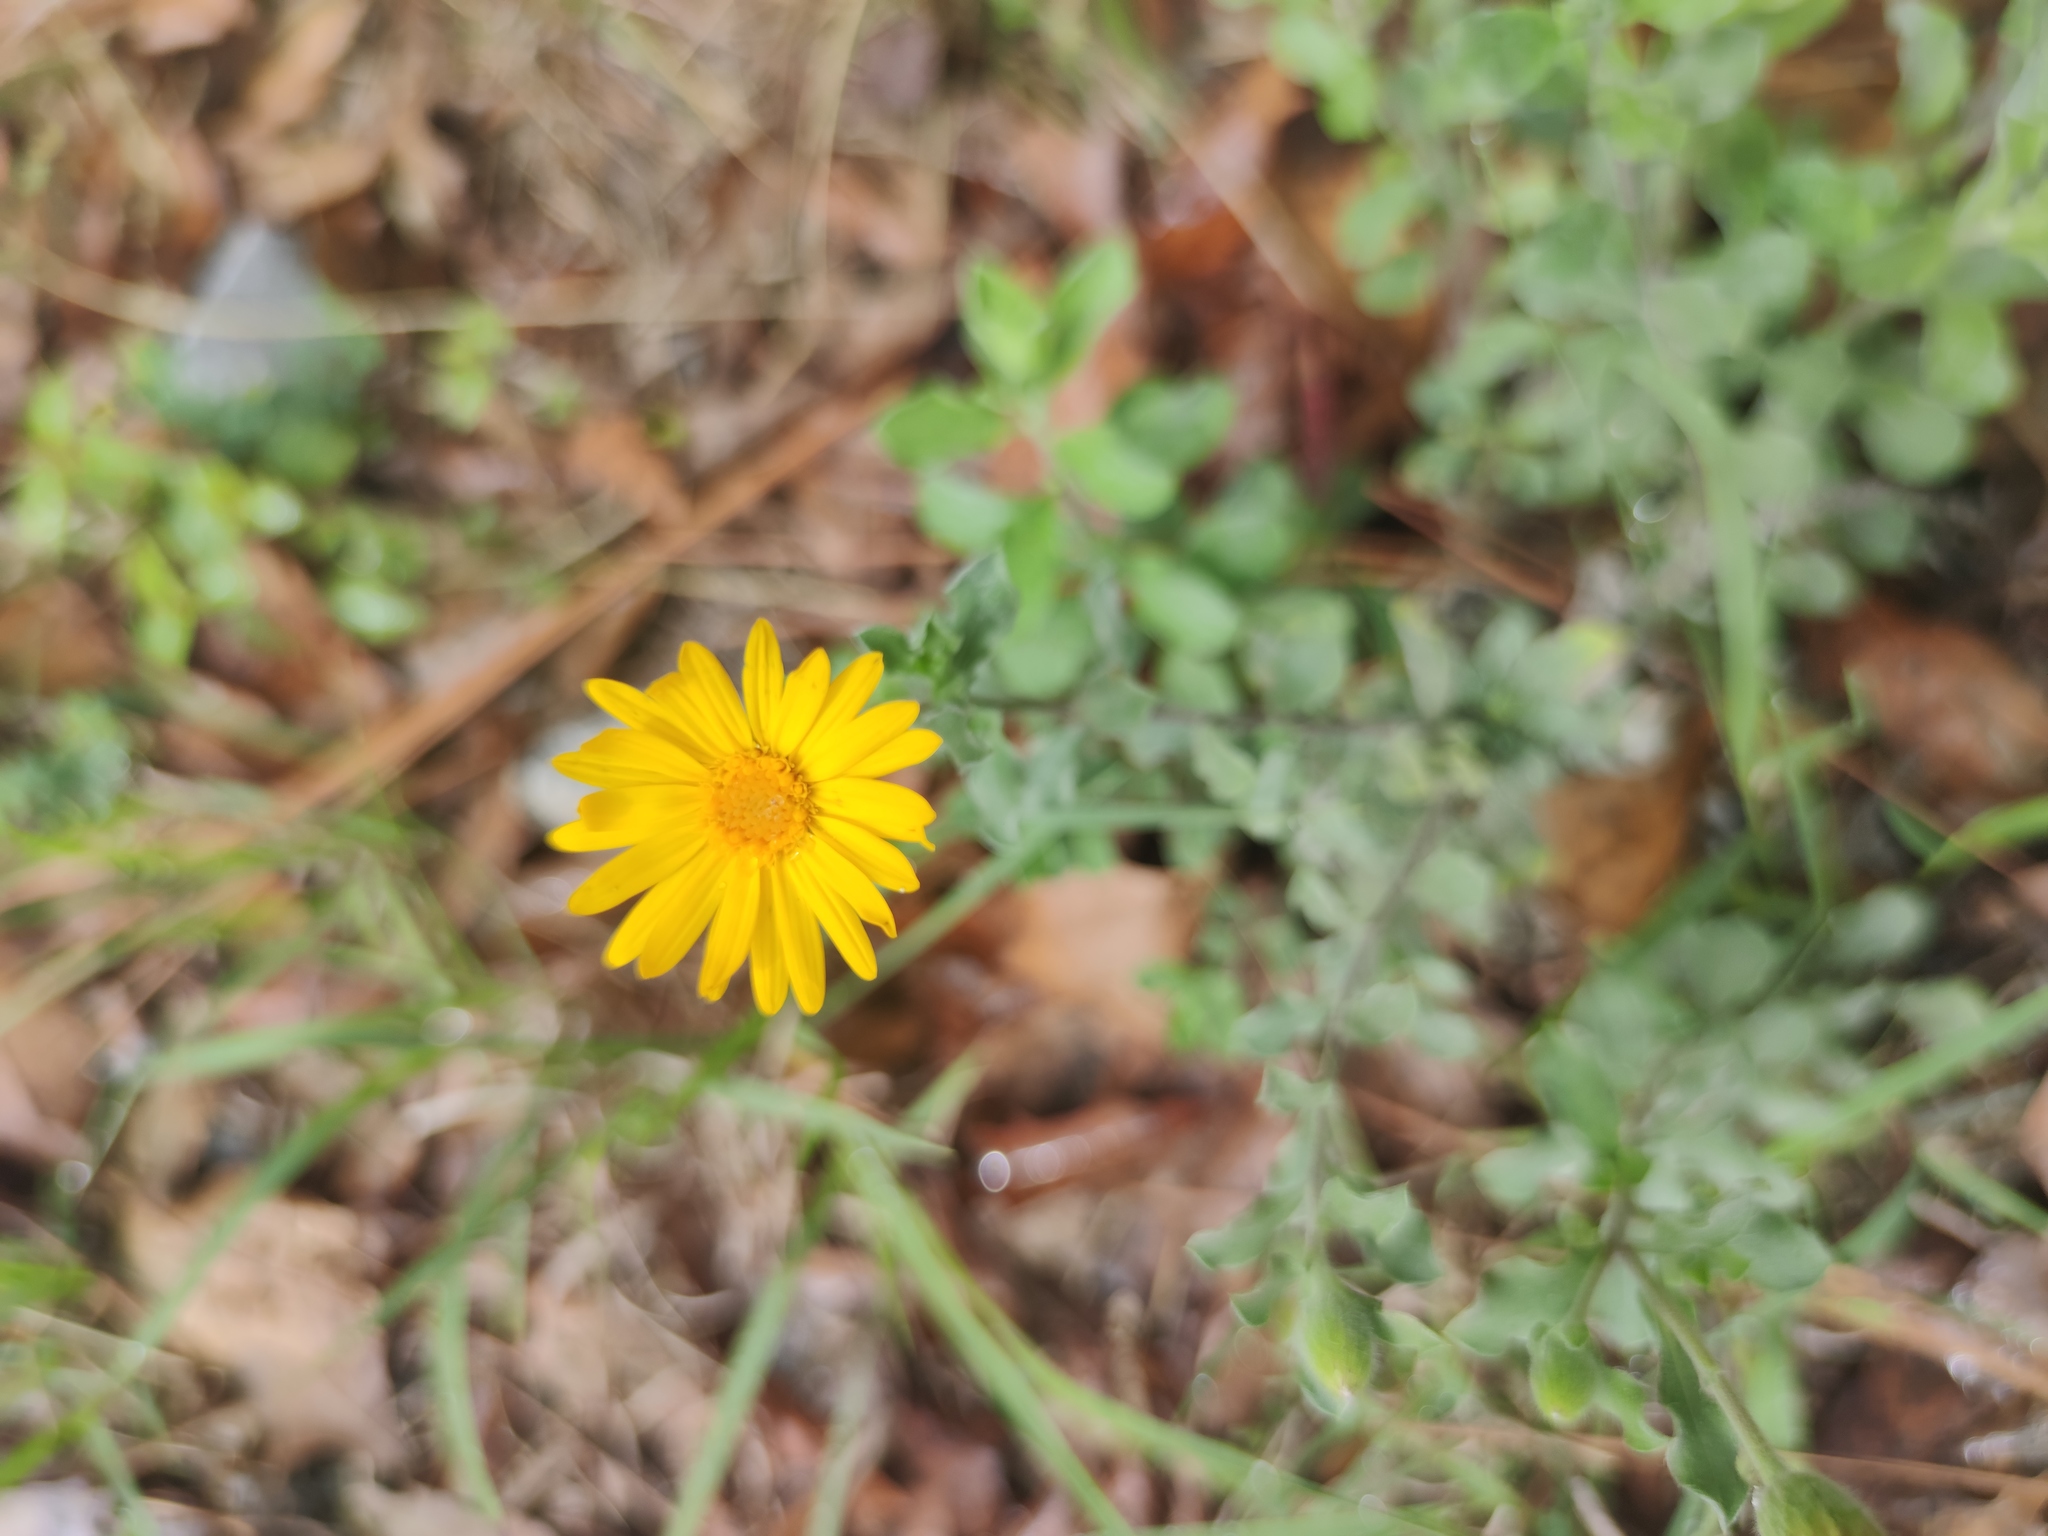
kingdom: Plantae
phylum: Tracheophyta
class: Magnoliopsida
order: Asterales
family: Asteraceae
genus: Heterotheca
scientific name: Heterotheca mucronata
